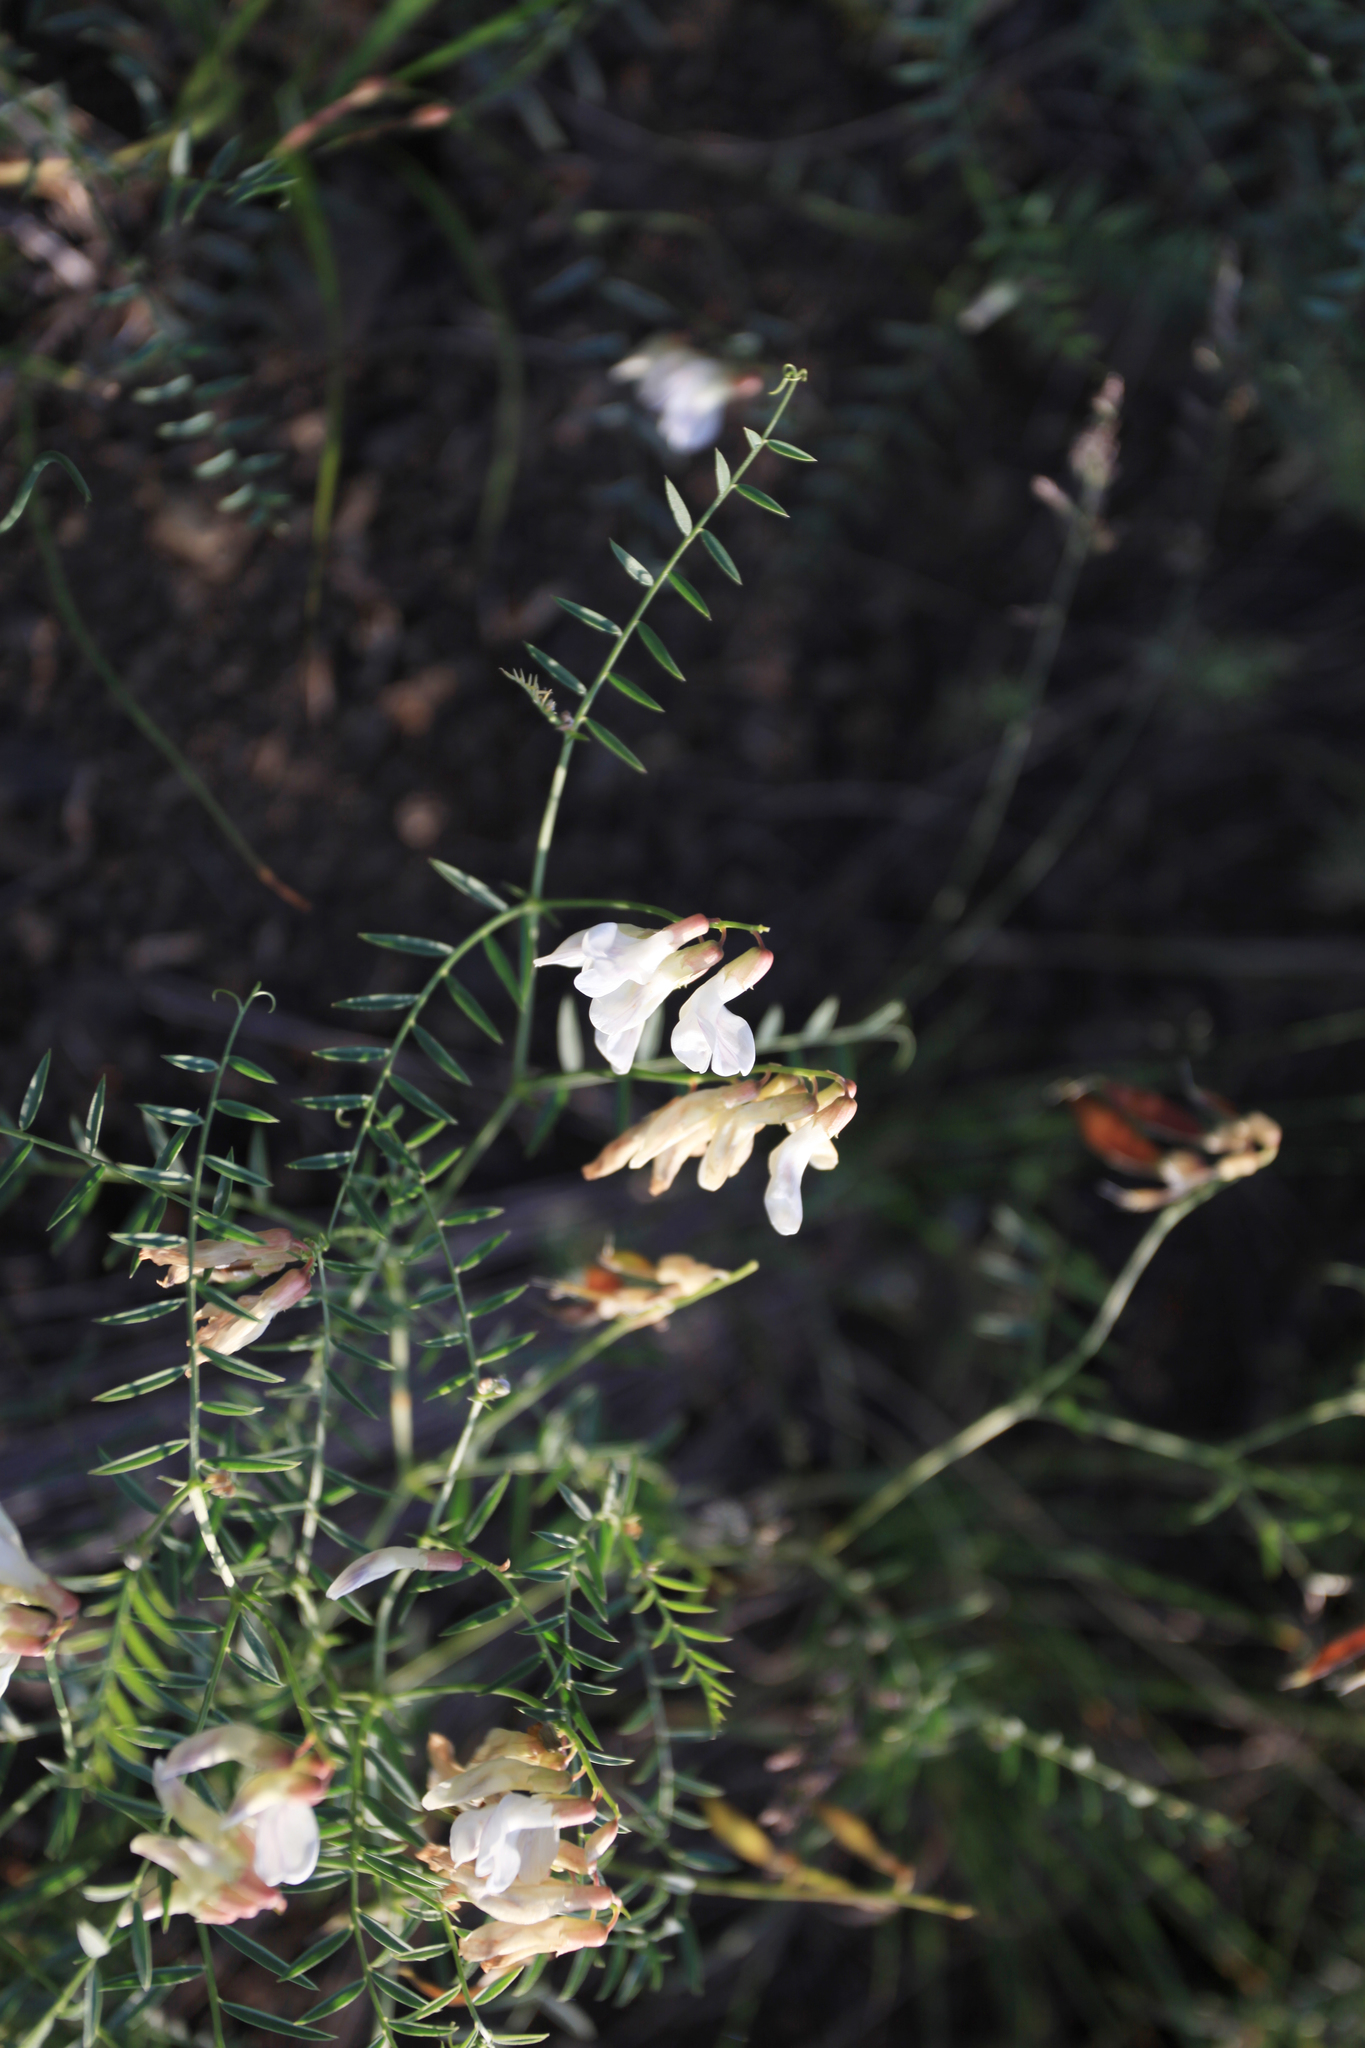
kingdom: Plantae
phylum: Tracheophyta
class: Magnoliopsida
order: Fabales
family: Fabaceae
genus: Vicia
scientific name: Vicia costata
